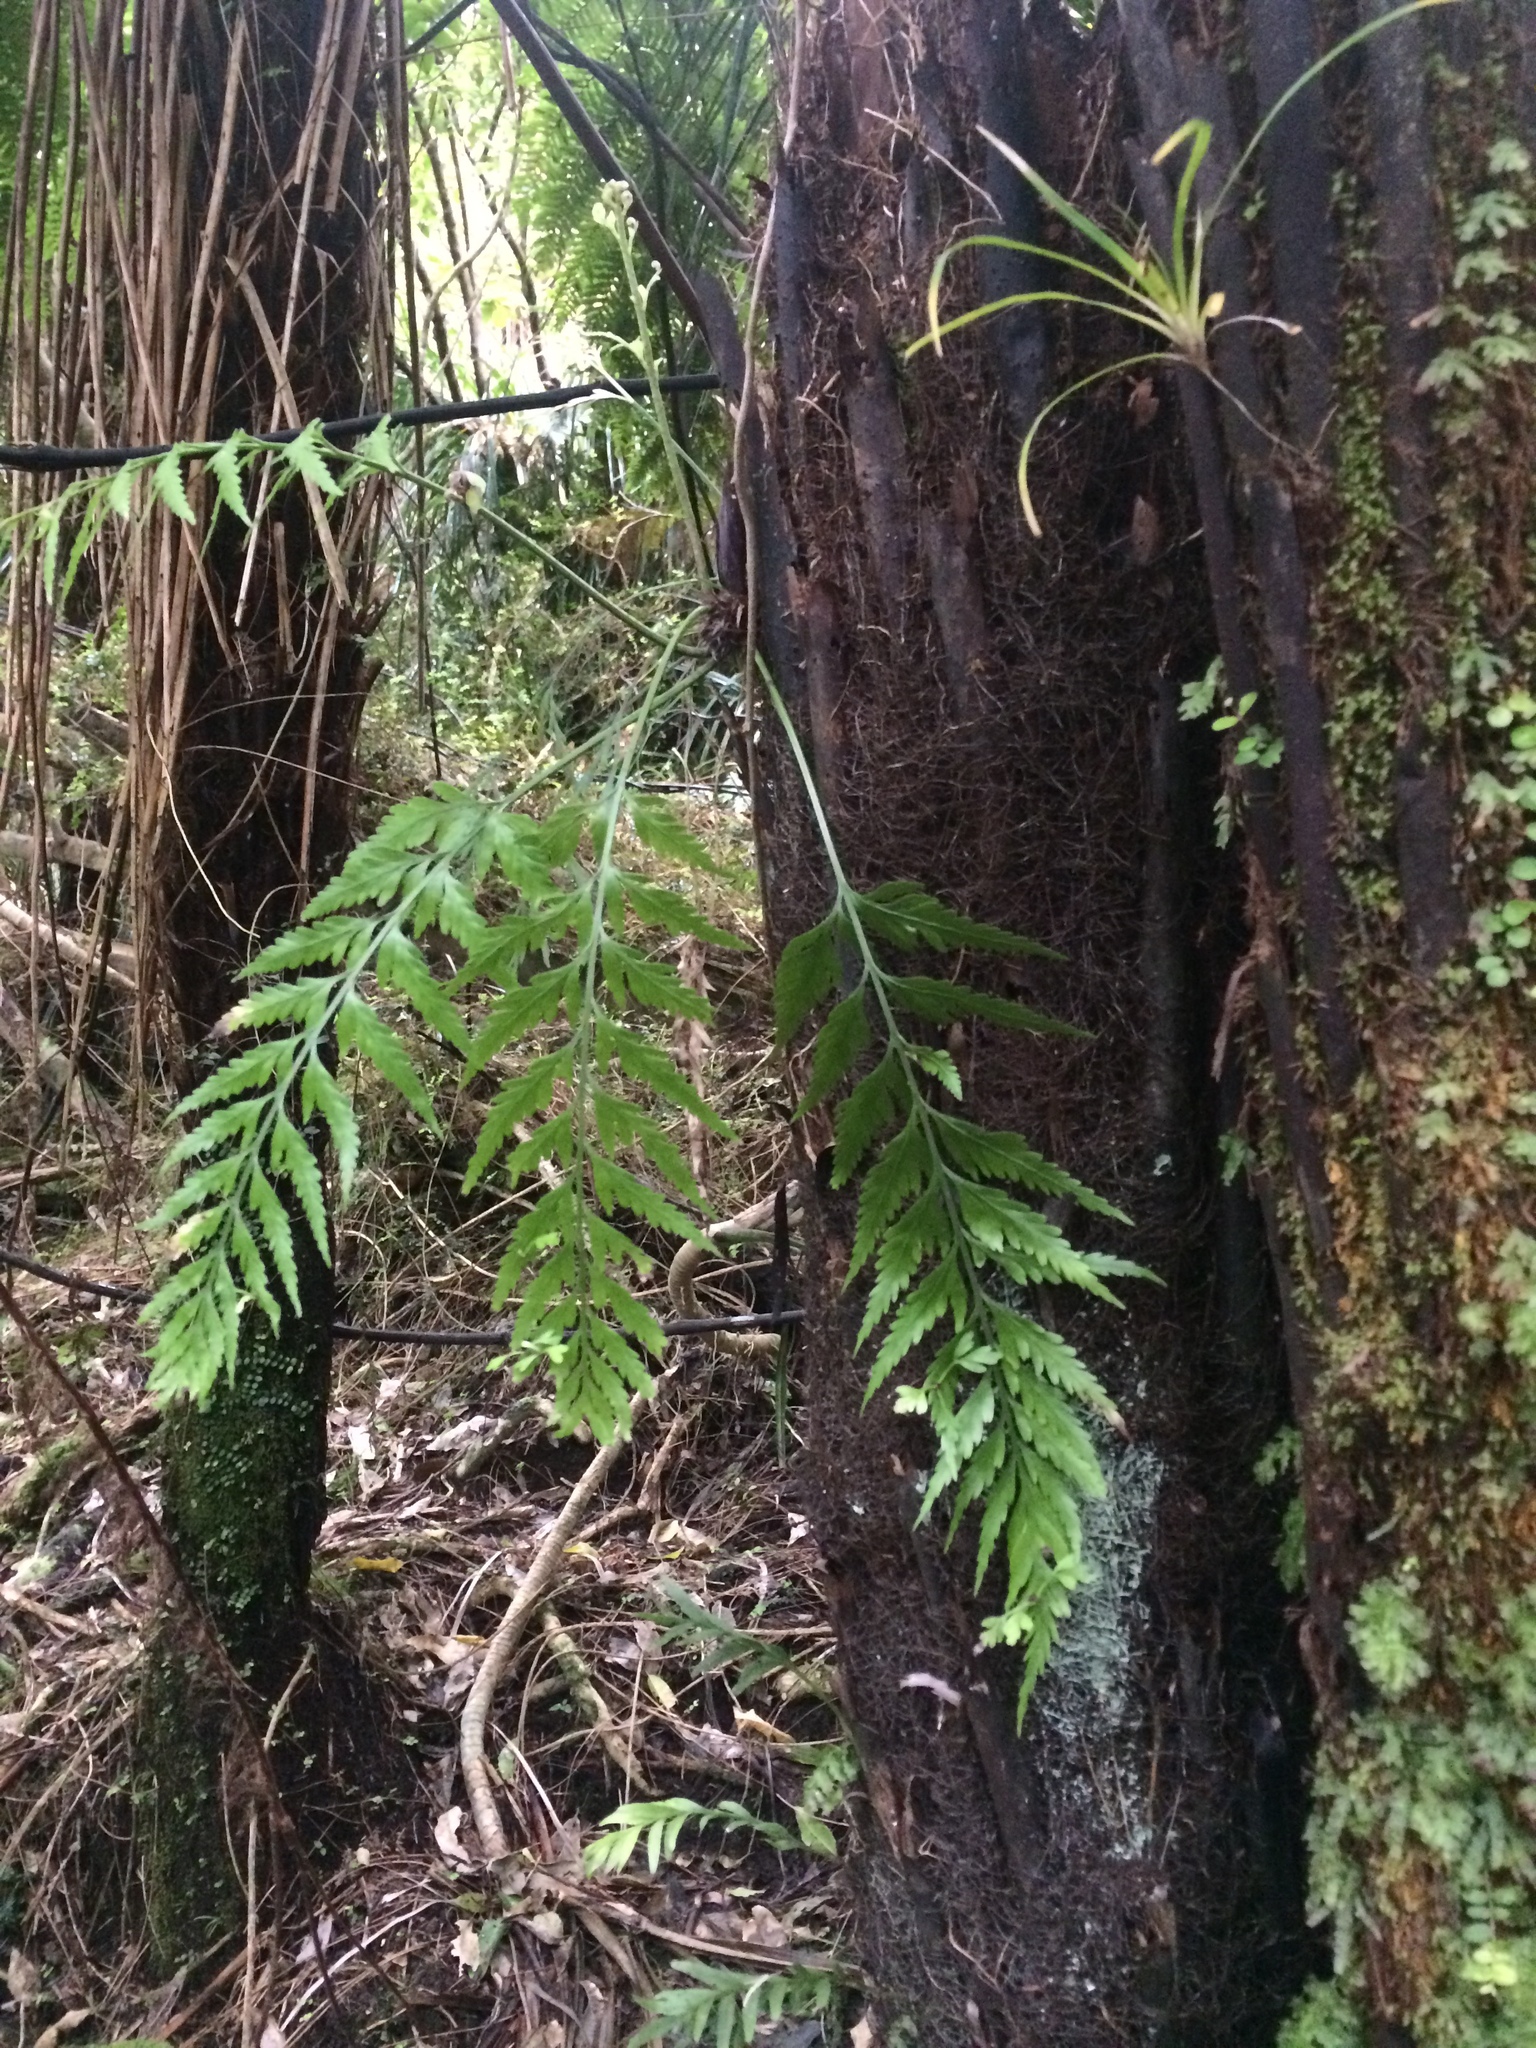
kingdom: Plantae
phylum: Tracheophyta
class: Polypodiopsida
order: Polypodiales
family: Aspleniaceae
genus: Asplenium
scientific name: Asplenium flaccidum
